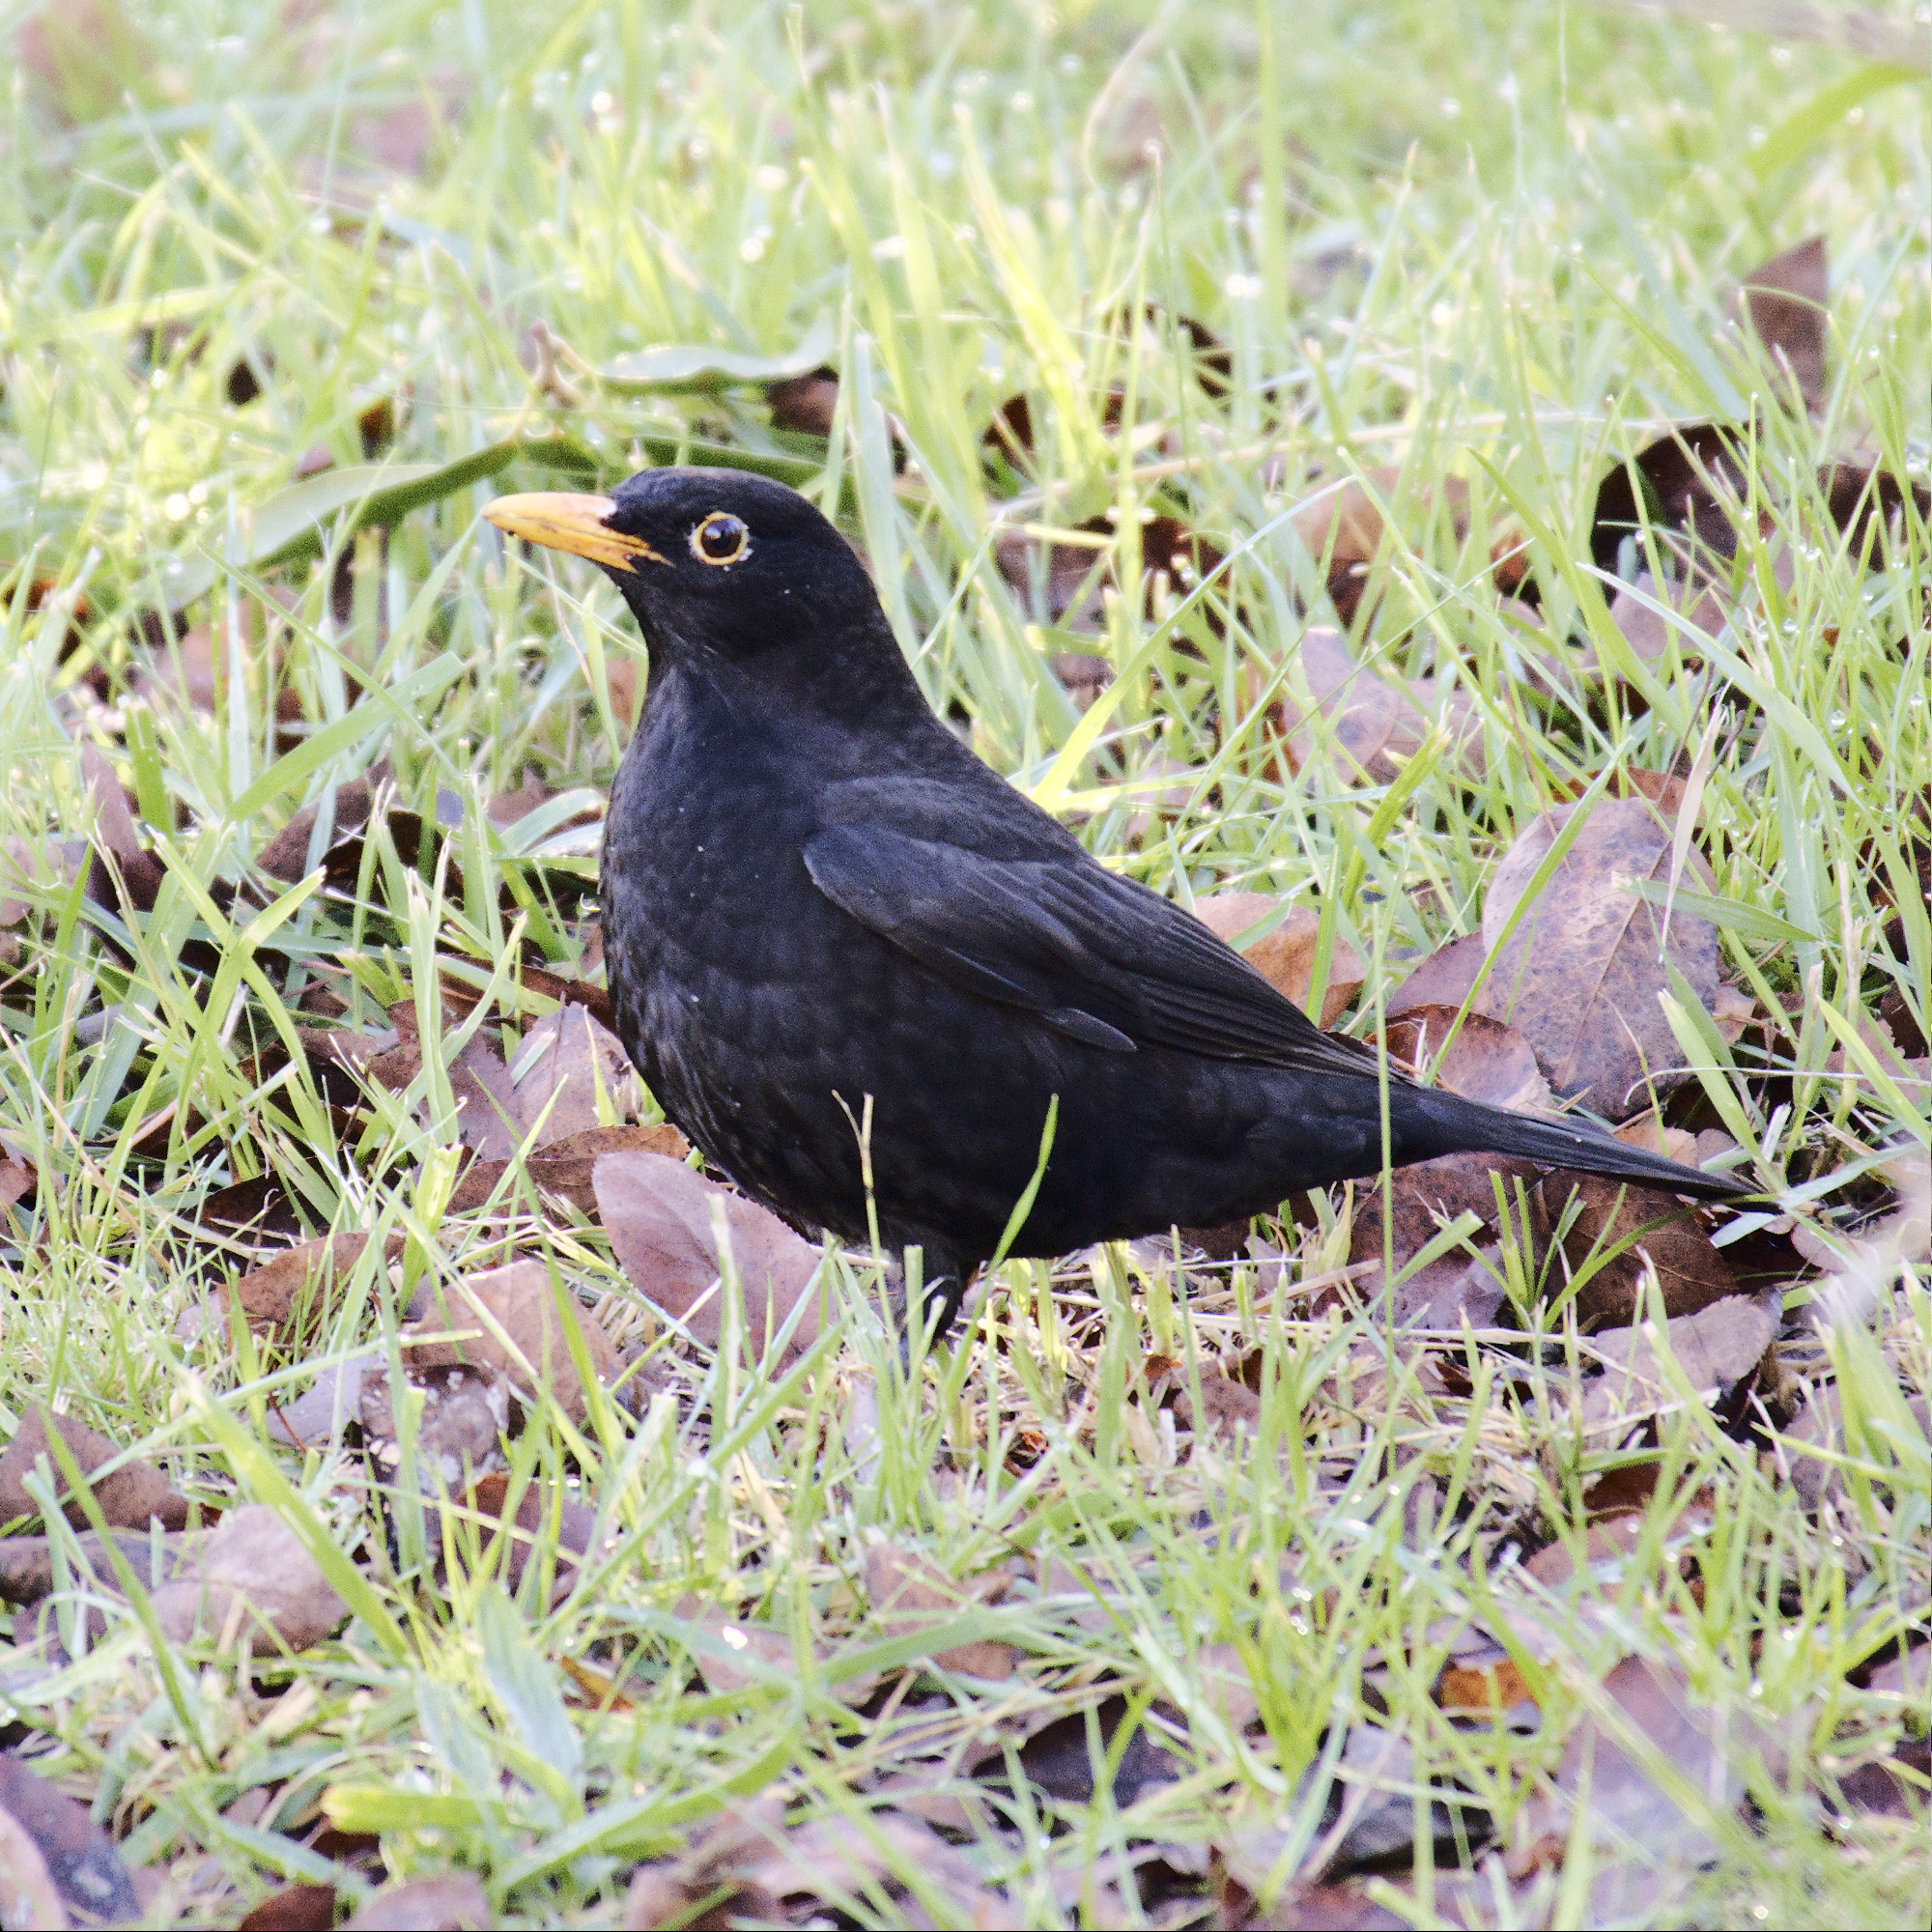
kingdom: Animalia
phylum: Chordata
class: Aves
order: Passeriformes
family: Turdidae
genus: Turdus
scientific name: Turdus merula
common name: Common blackbird
